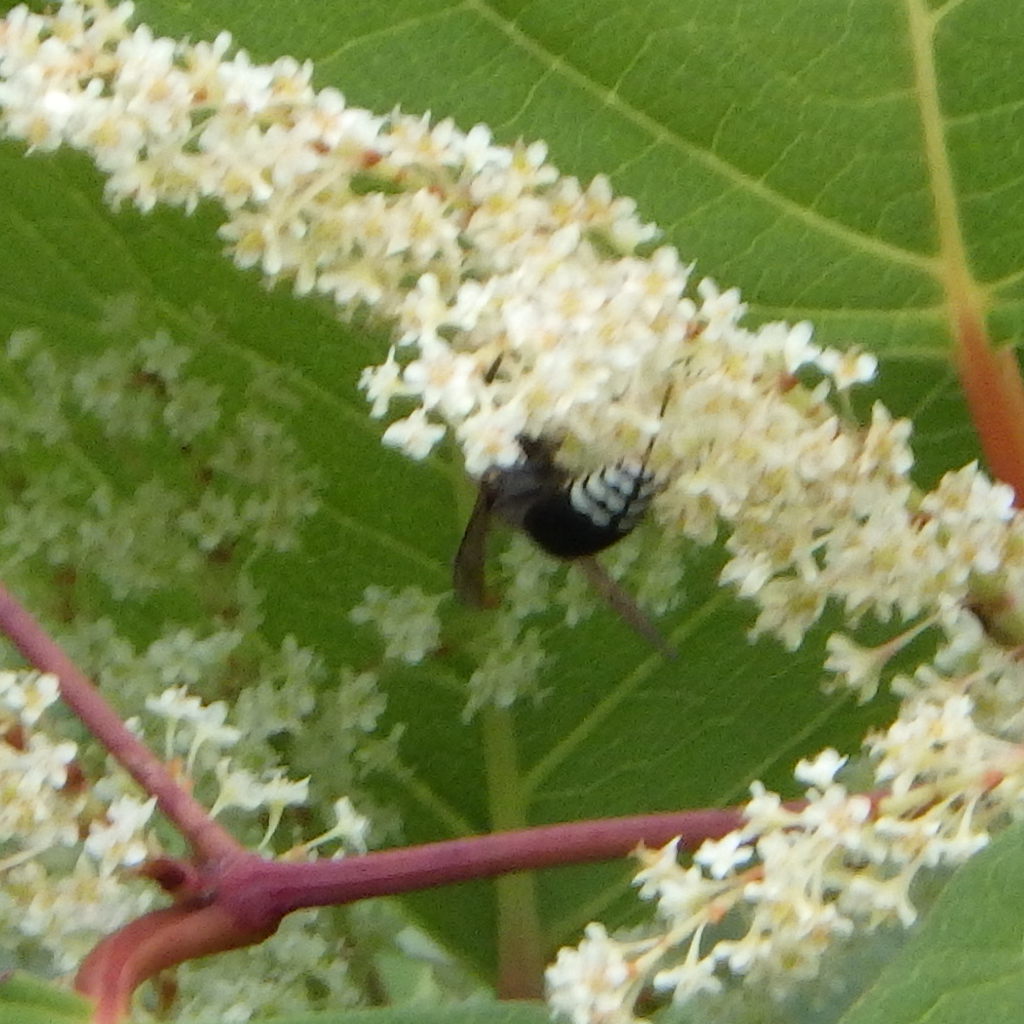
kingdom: Animalia
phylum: Arthropoda
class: Insecta
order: Hymenoptera
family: Vespidae
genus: Dolichovespula
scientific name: Dolichovespula maculata
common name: Bald-faced hornet
